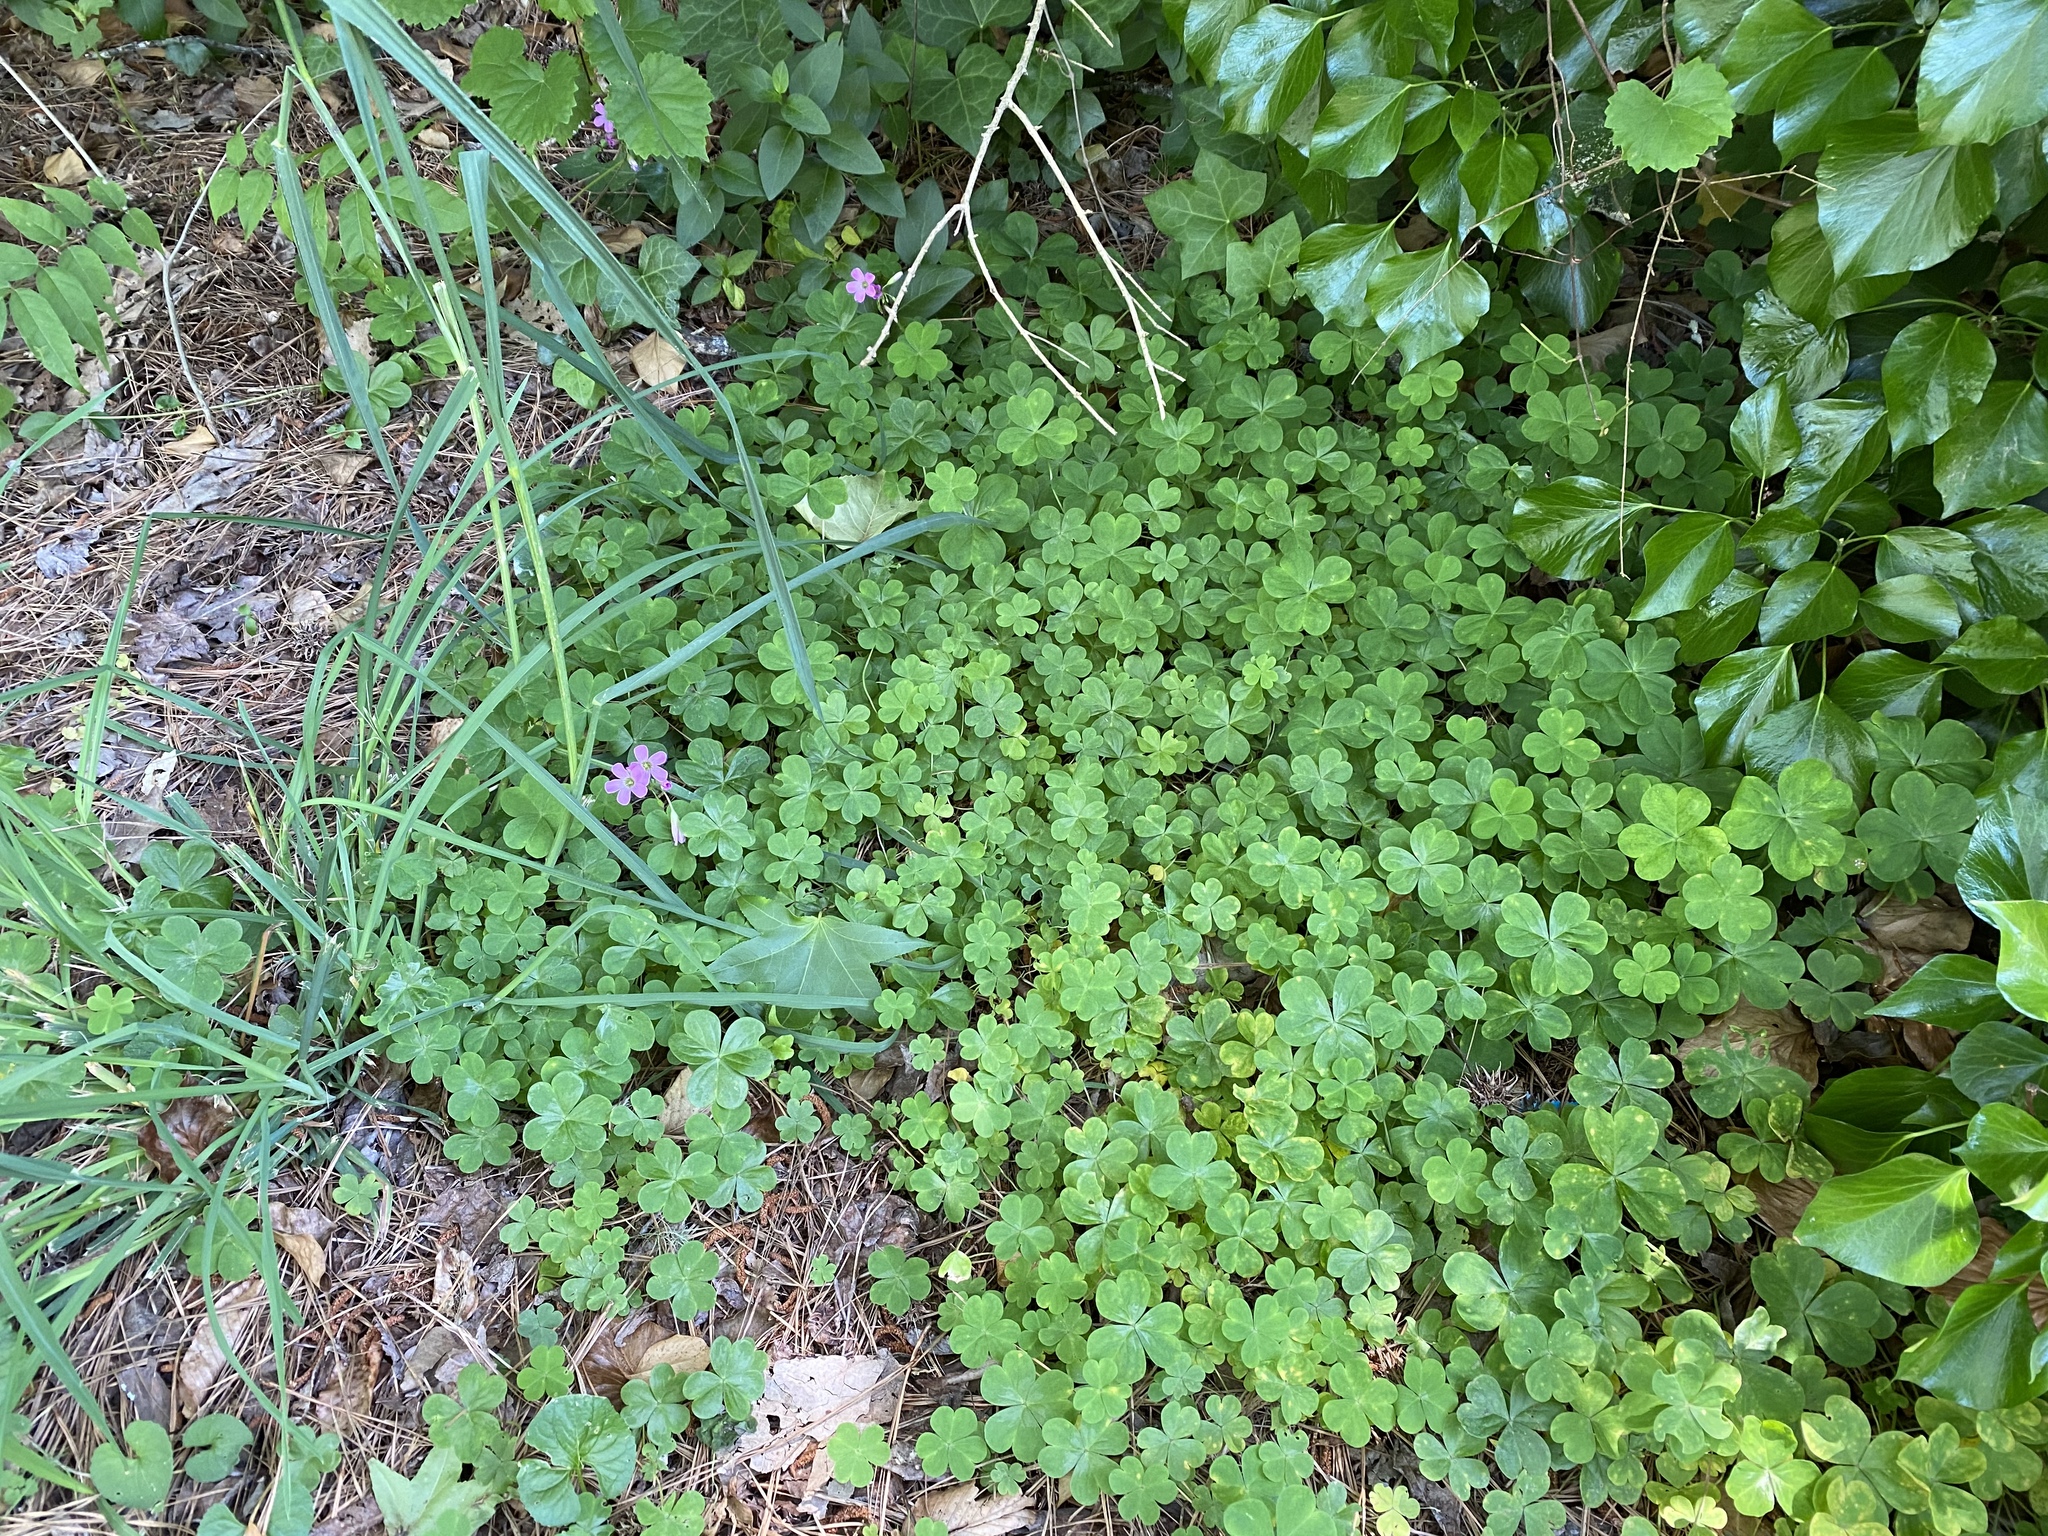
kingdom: Plantae
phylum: Tracheophyta
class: Magnoliopsida
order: Oxalidales
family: Oxalidaceae
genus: Oxalis
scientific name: Oxalis debilis
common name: Large-flowered pink-sorrel
